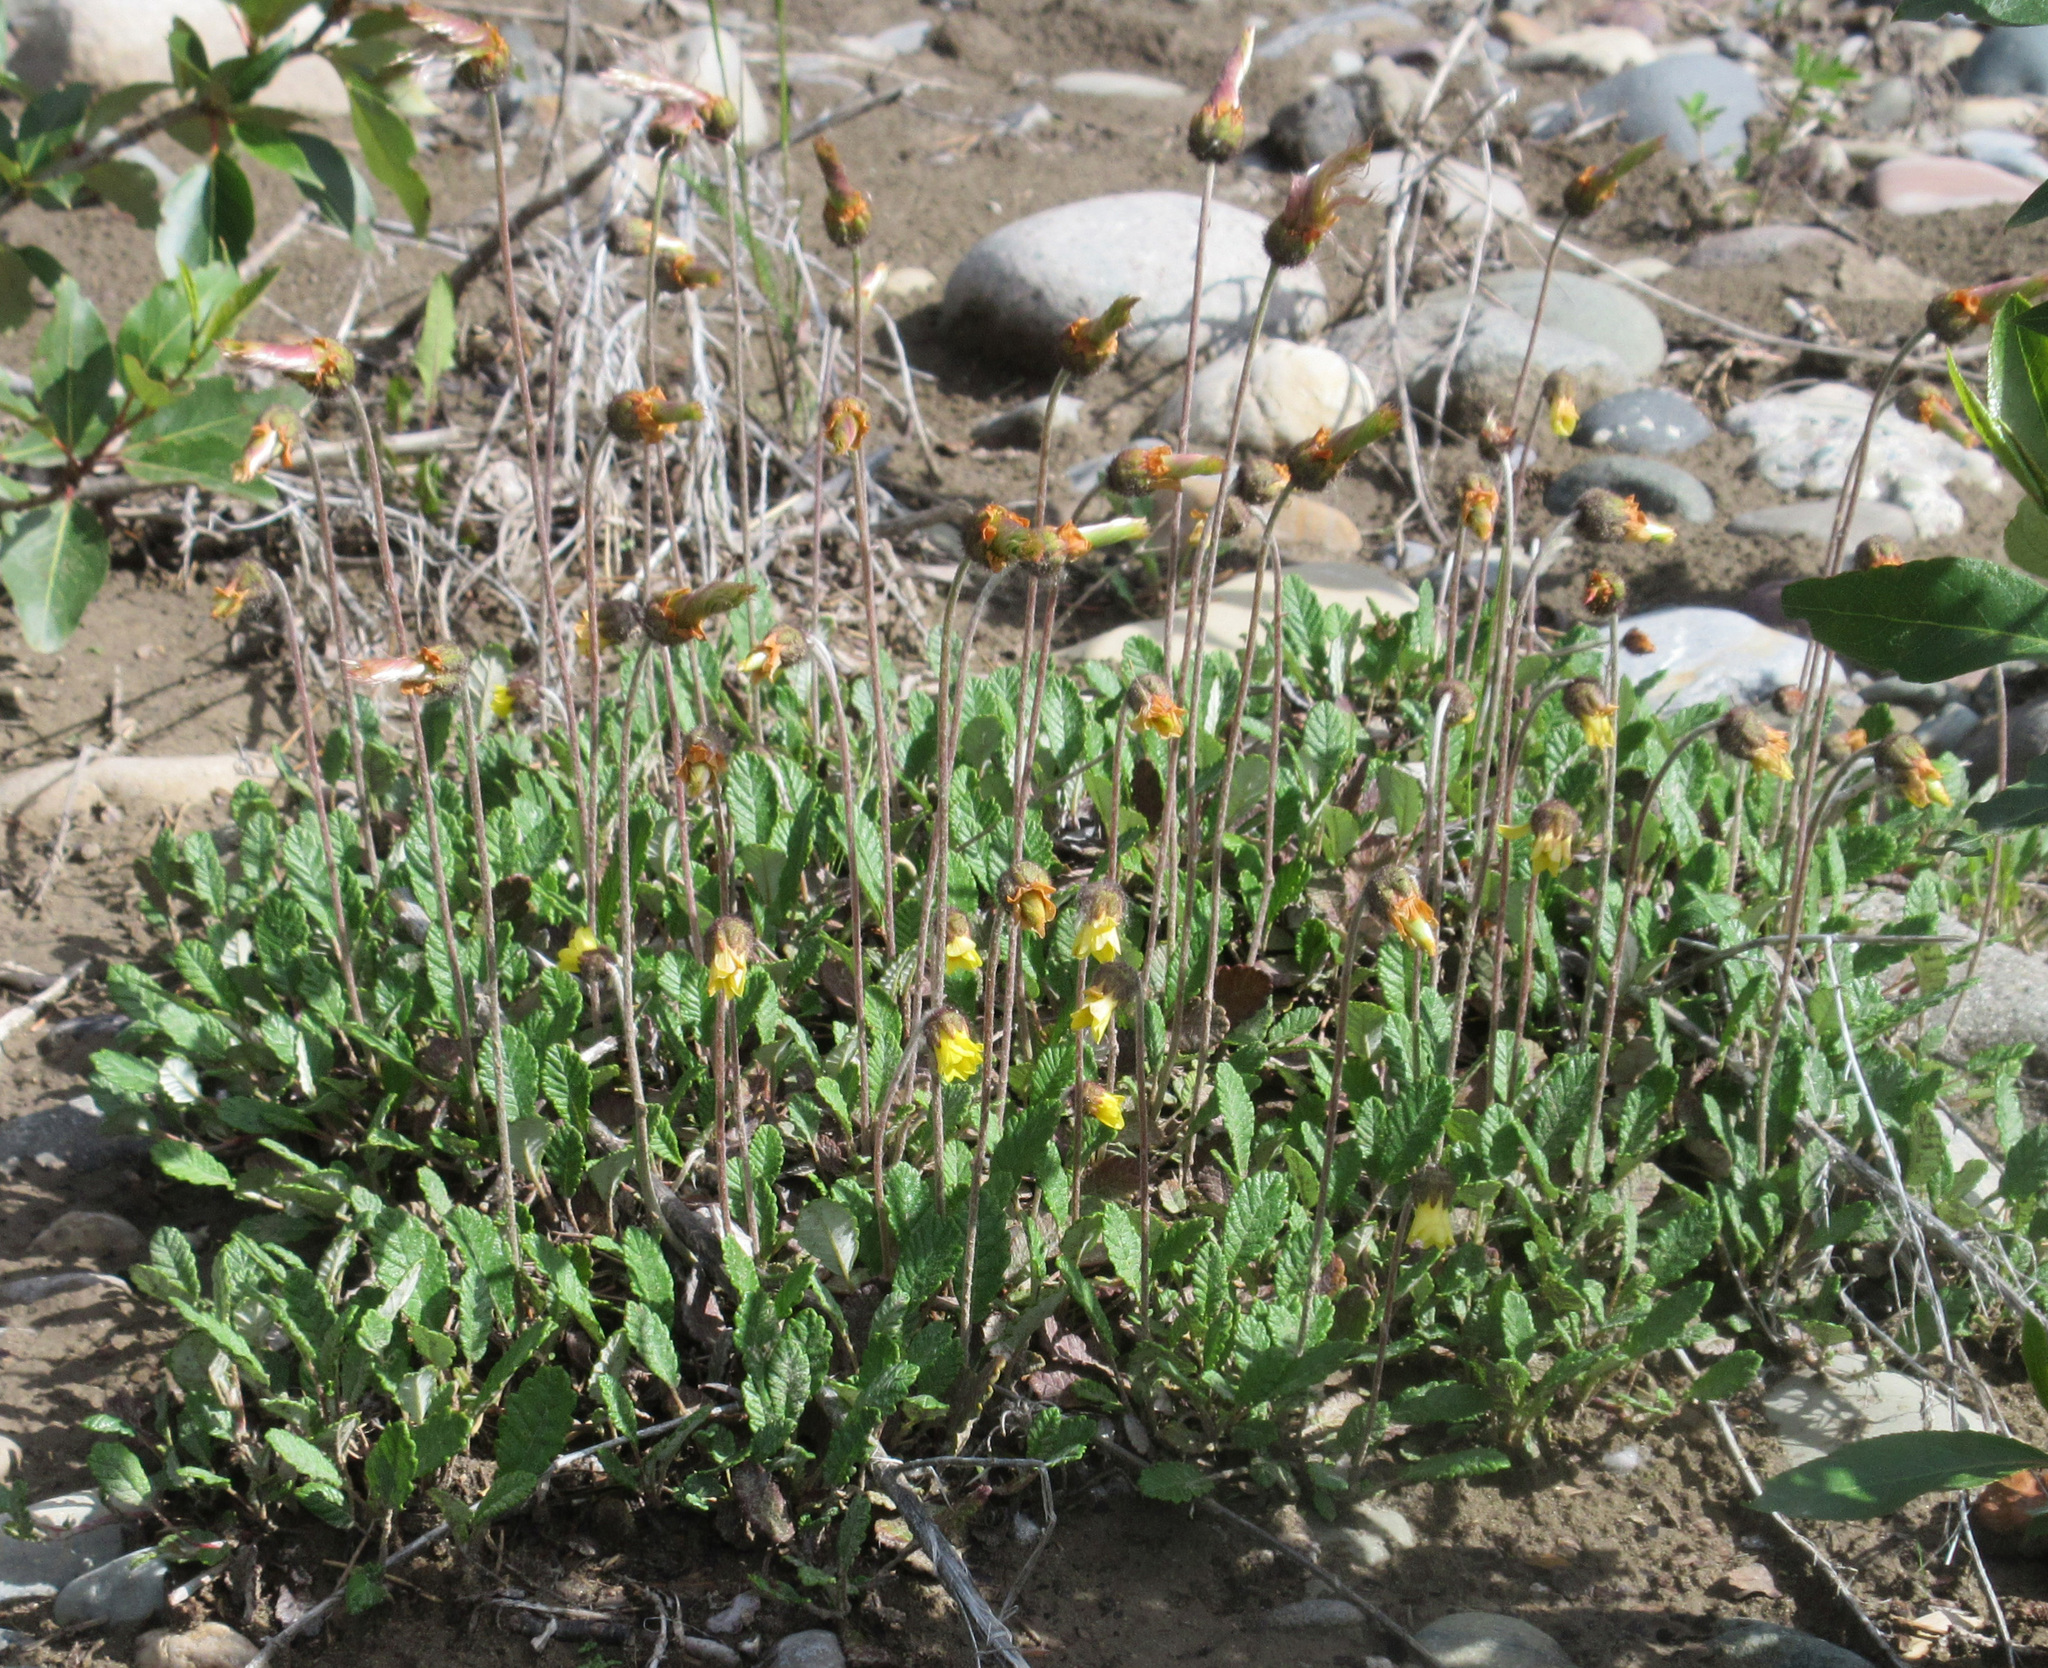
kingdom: Plantae
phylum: Tracheophyta
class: Magnoliopsida
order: Rosales
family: Rosaceae
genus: Dryas
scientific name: Dryas drummondii
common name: Drummond's dryad
